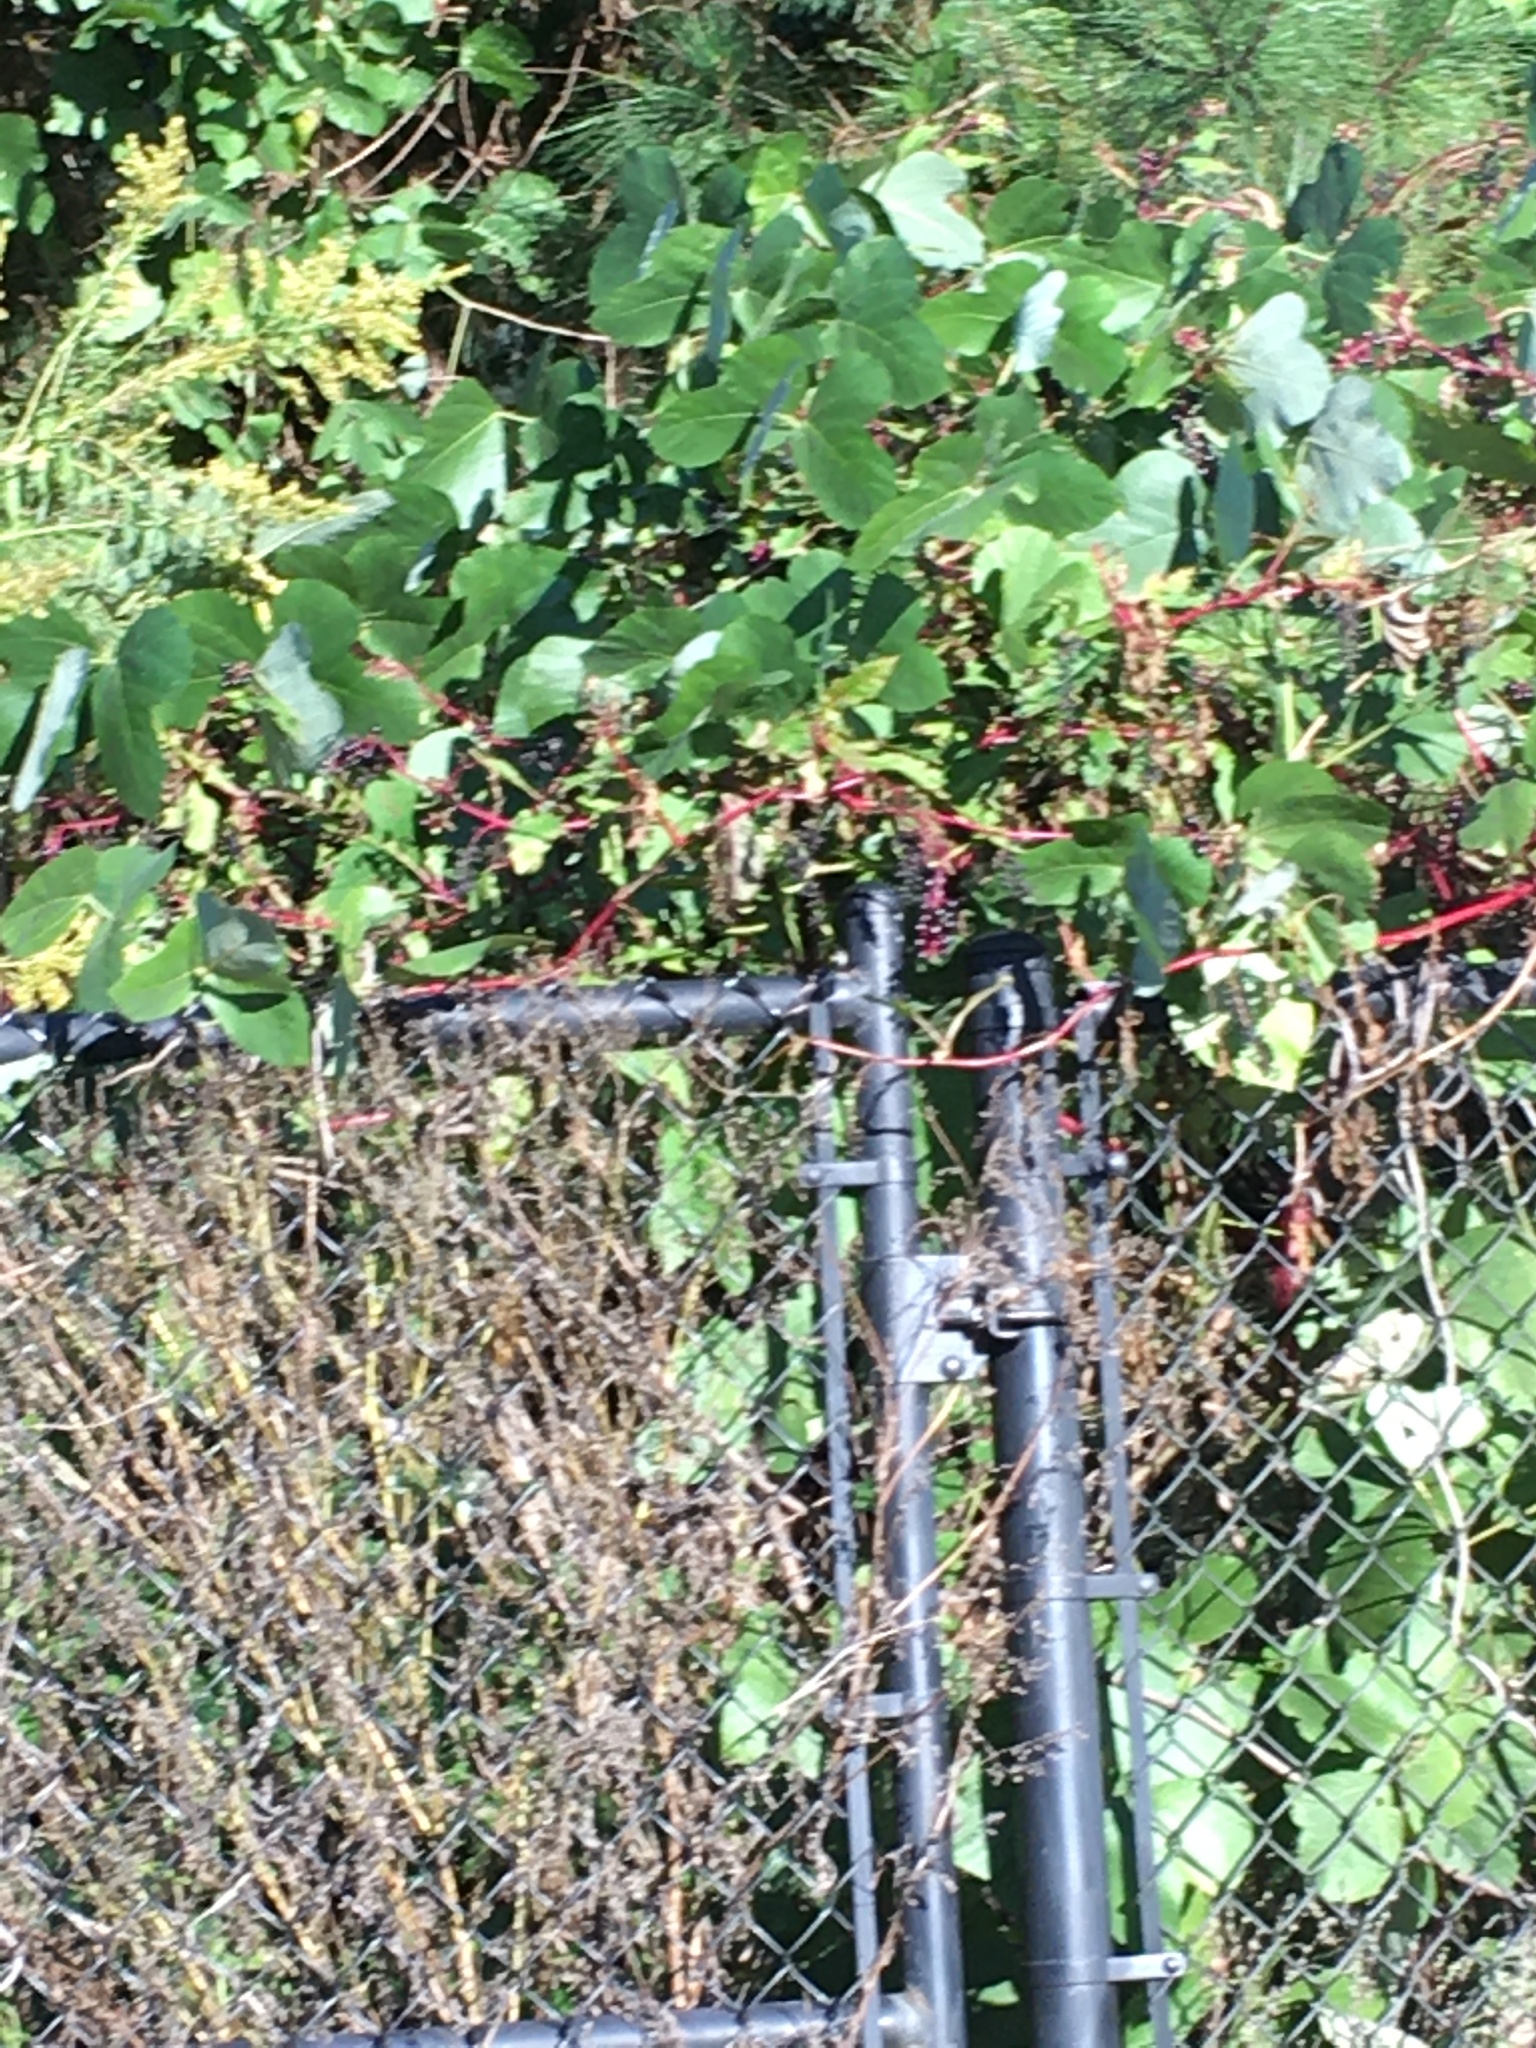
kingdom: Plantae
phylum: Tracheophyta
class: Magnoliopsida
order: Fabales
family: Fabaceae
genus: Pueraria
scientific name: Pueraria montana
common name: Kudzu
